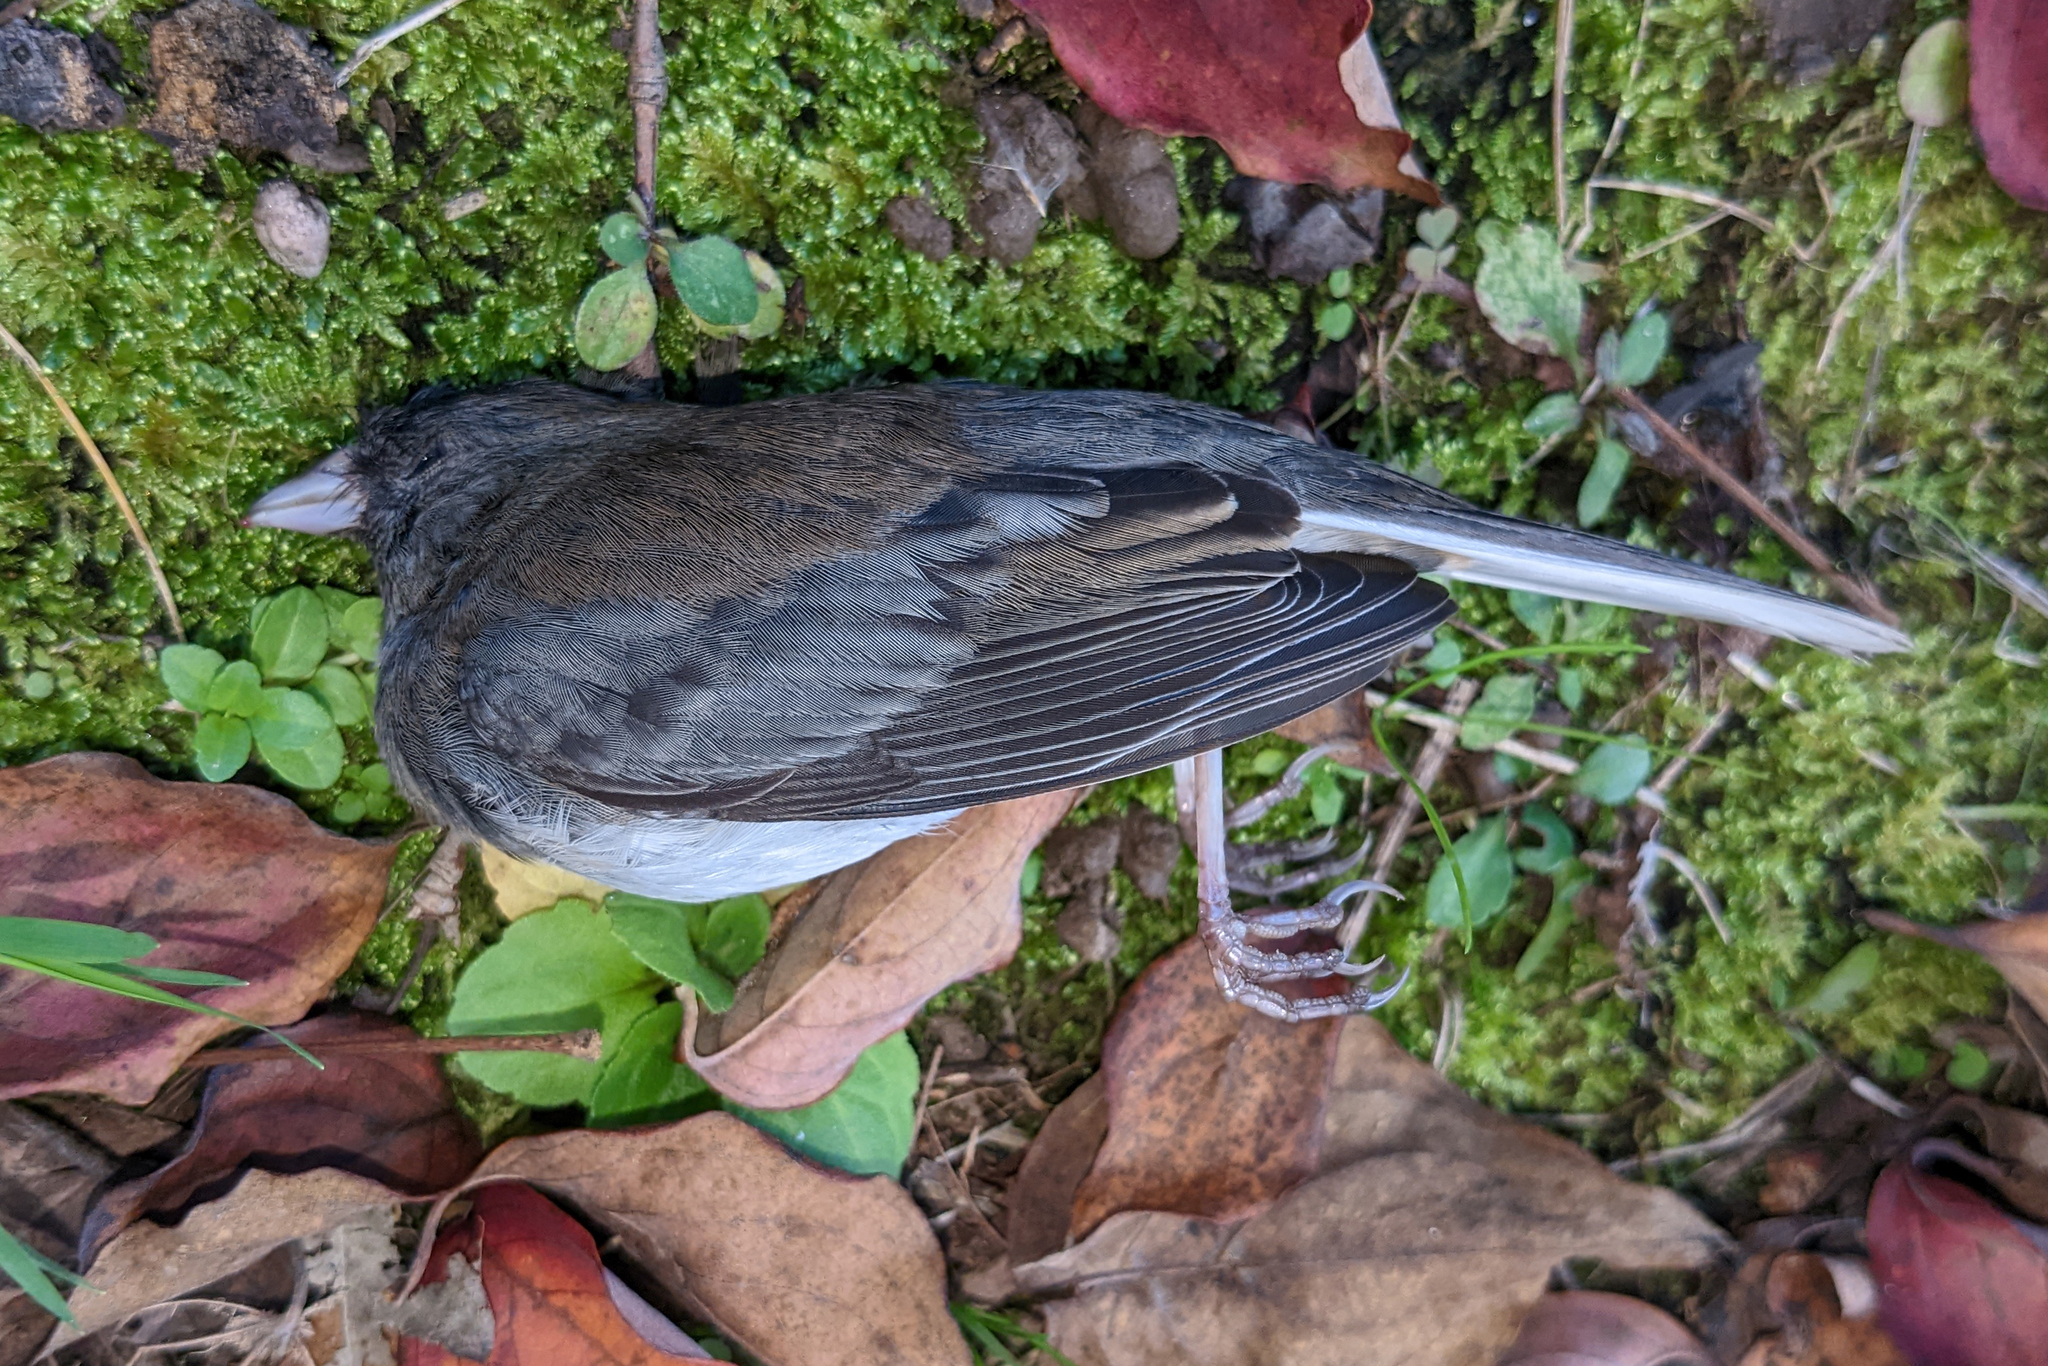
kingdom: Animalia
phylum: Chordata
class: Aves
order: Passeriformes
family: Passerellidae
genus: Junco
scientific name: Junco hyemalis
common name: Dark-eyed junco
